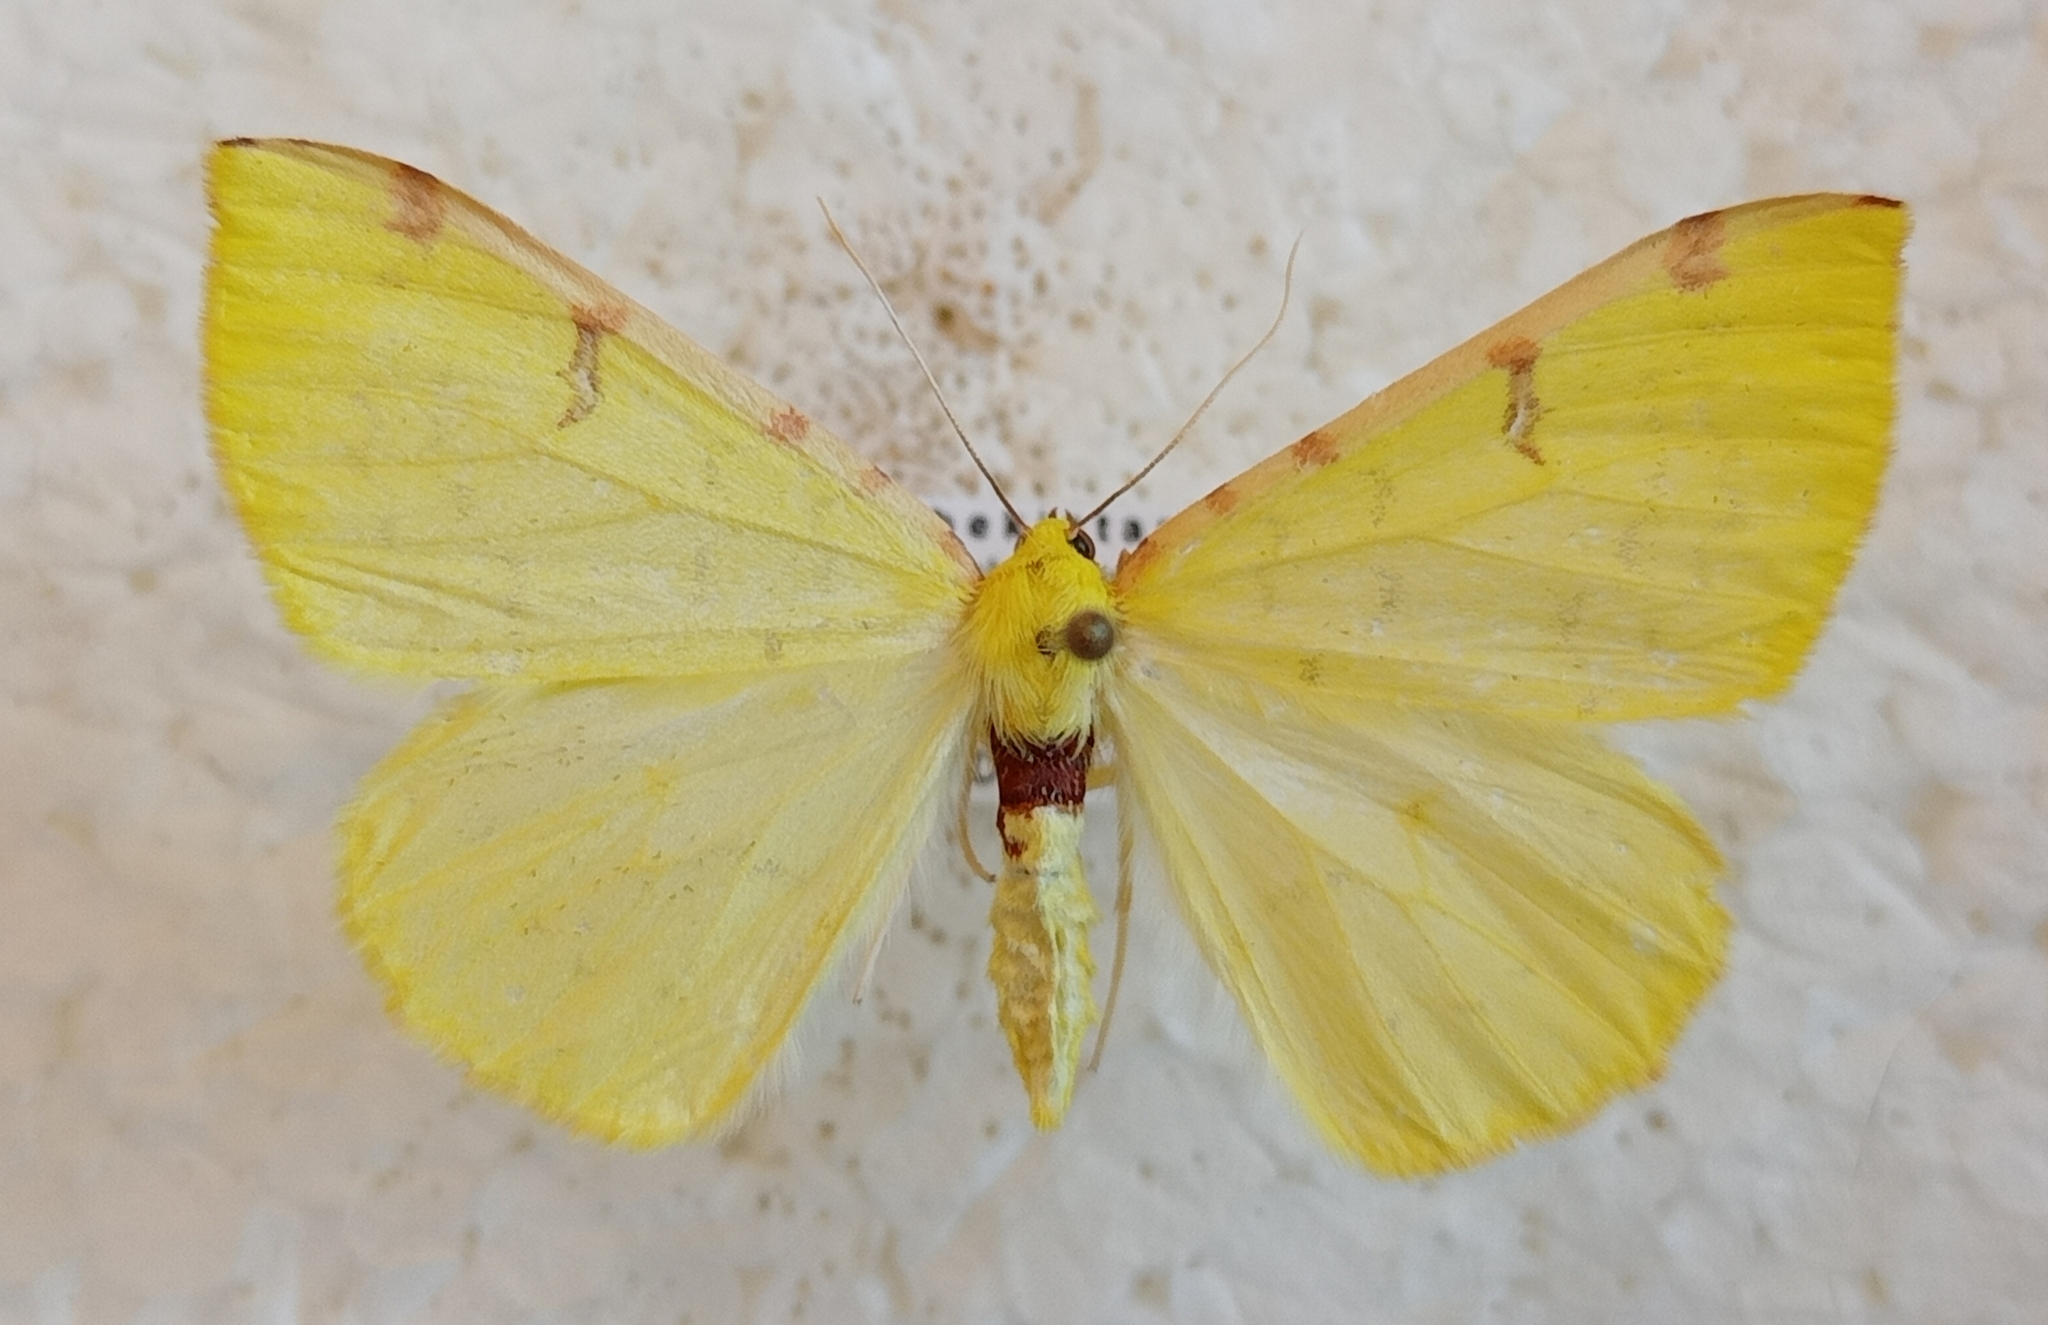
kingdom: Animalia
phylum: Arthropoda
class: Insecta
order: Lepidoptera
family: Geometridae
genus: Opisthograptis
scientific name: Opisthograptis luteolata
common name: Brimstone moth
